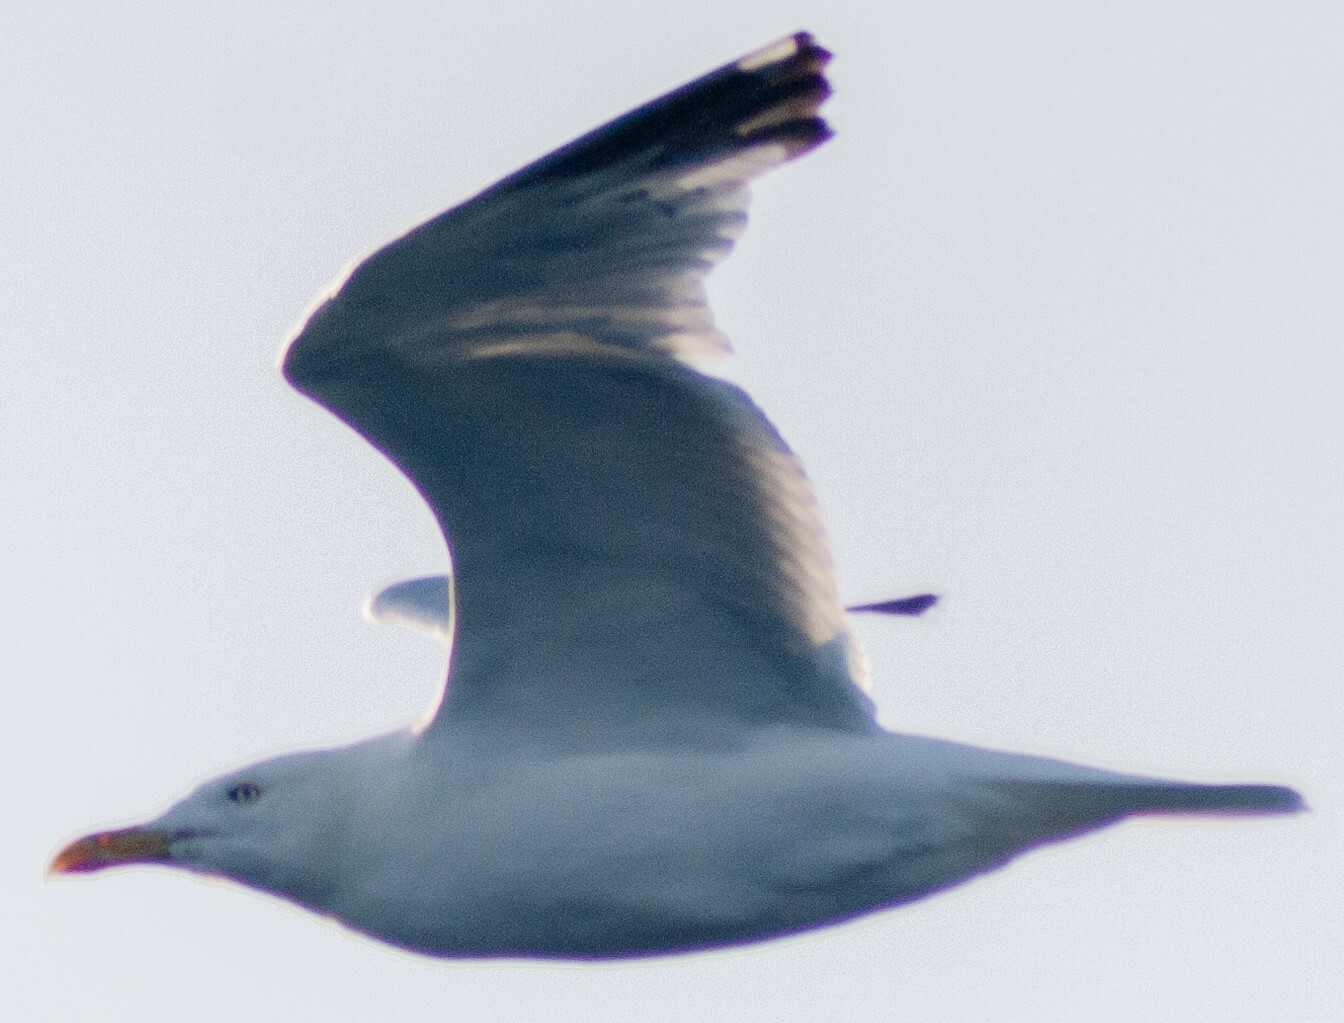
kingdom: Animalia
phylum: Chordata
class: Aves
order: Charadriiformes
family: Laridae
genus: Larus
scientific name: Larus argentatus
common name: Herring gull
